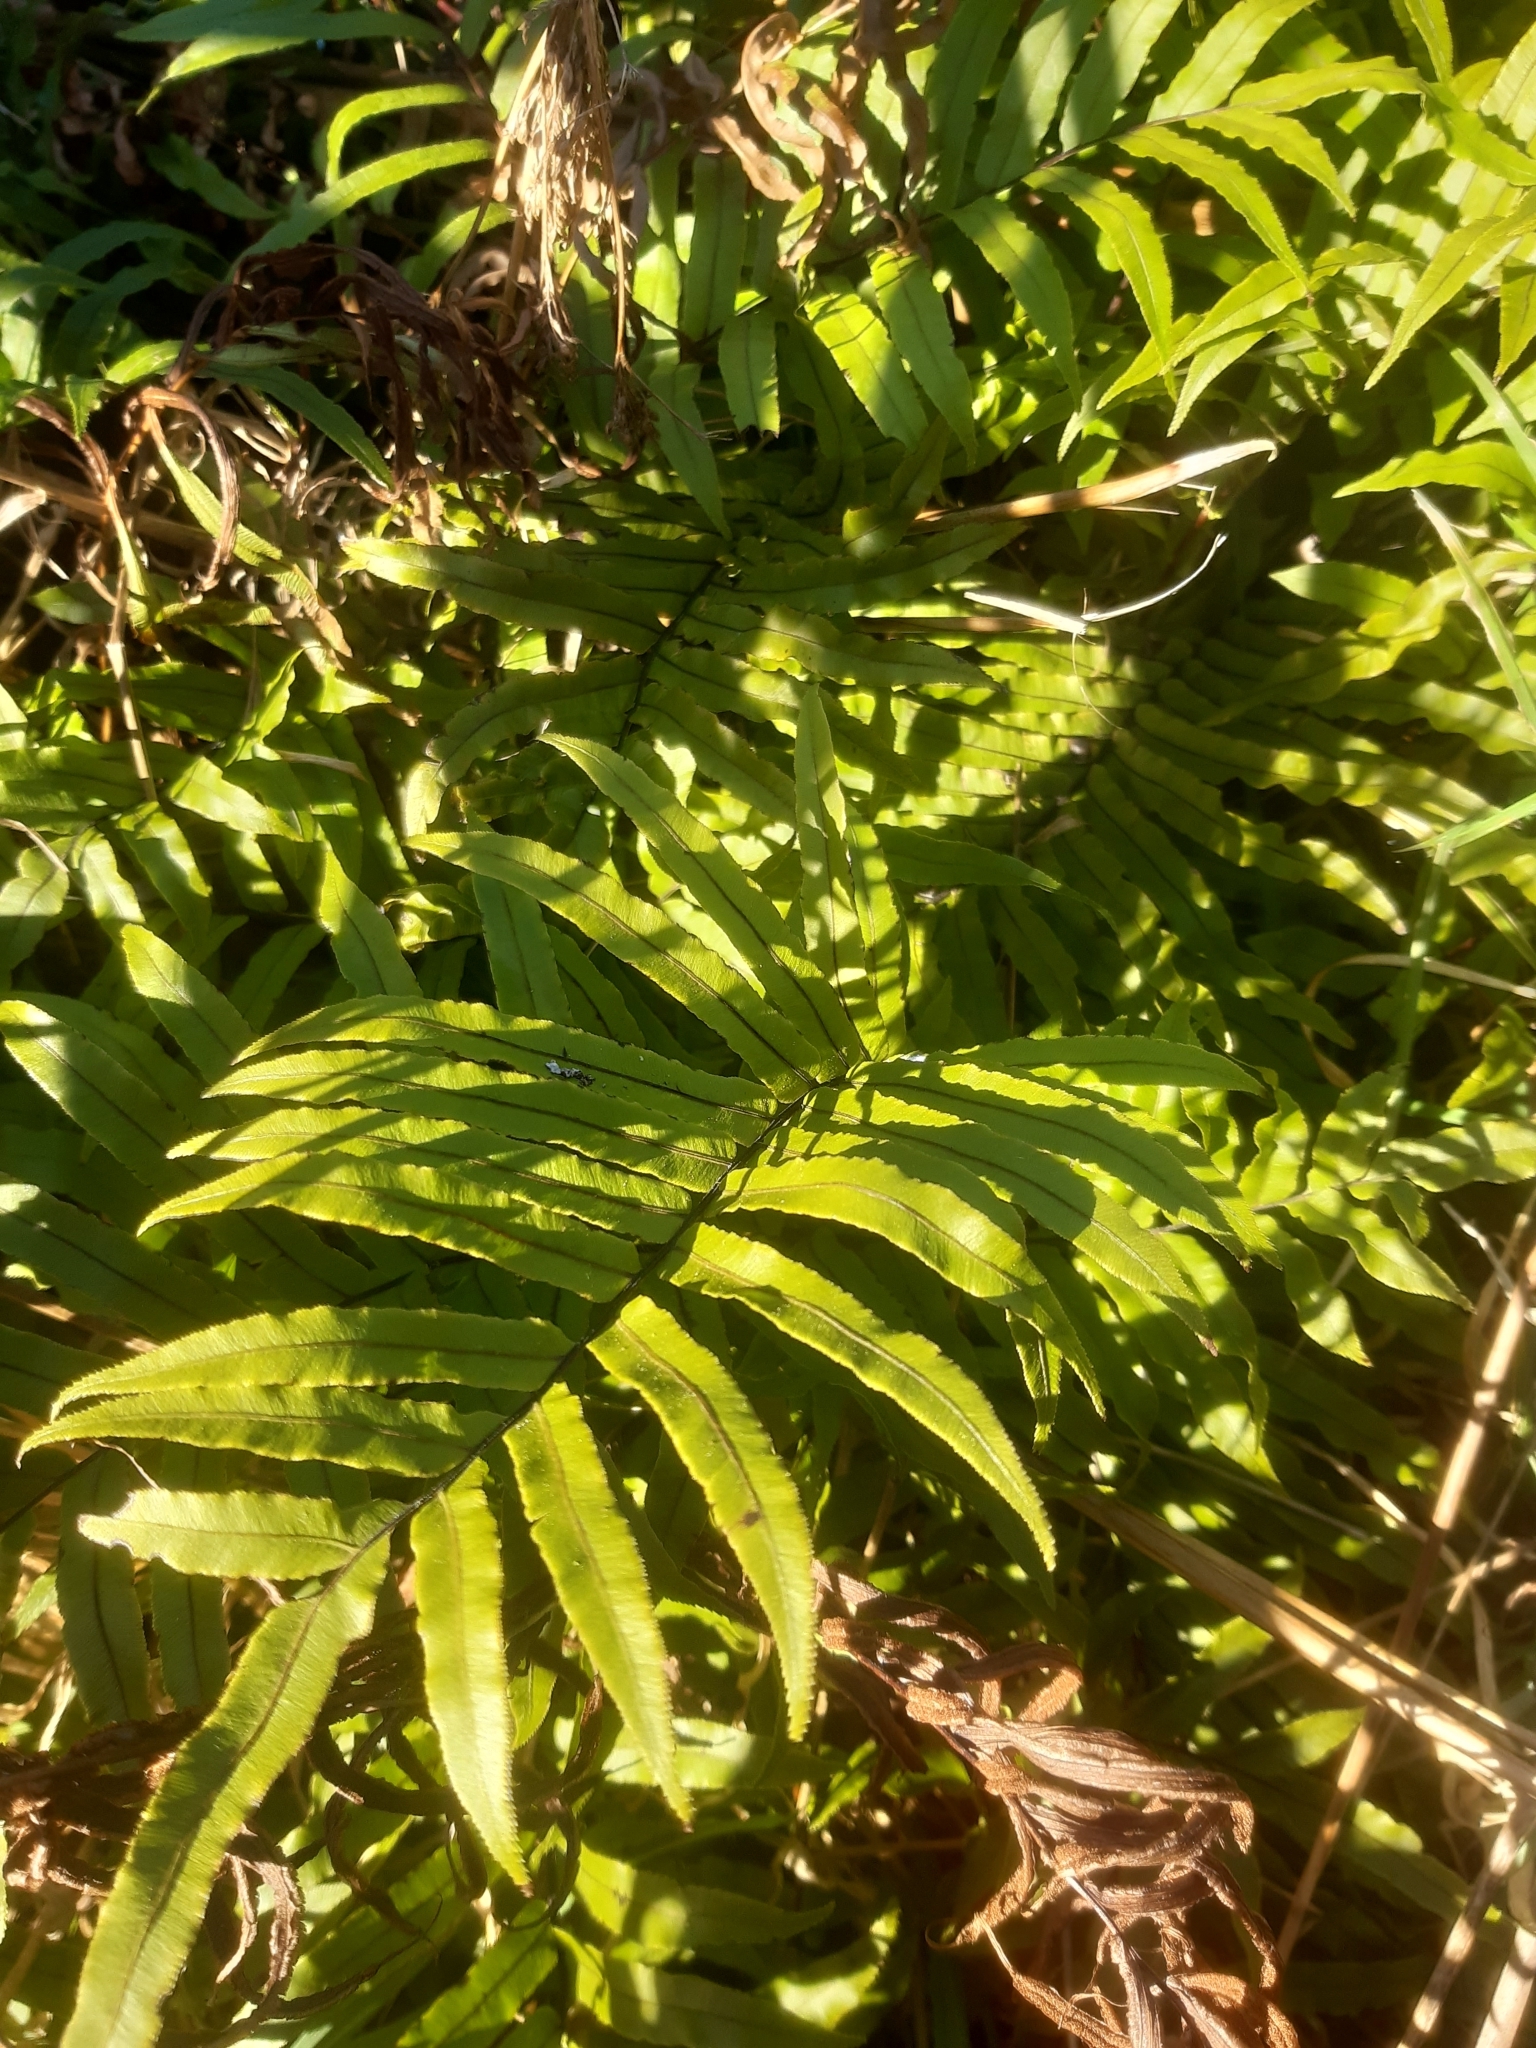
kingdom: Plantae
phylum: Tracheophyta
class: Polypodiopsida
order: Polypodiales
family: Blechnaceae
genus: Parablechnum
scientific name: Parablechnum minus
